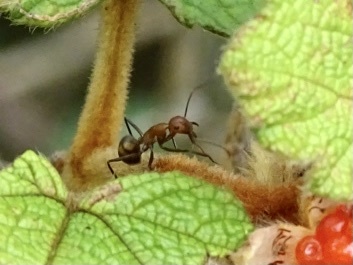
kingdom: Animalia
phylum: Arthropoda
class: Insecta
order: Hymenoptera
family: Formicidae
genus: Camponotus
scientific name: Camponotus nicobarensis
